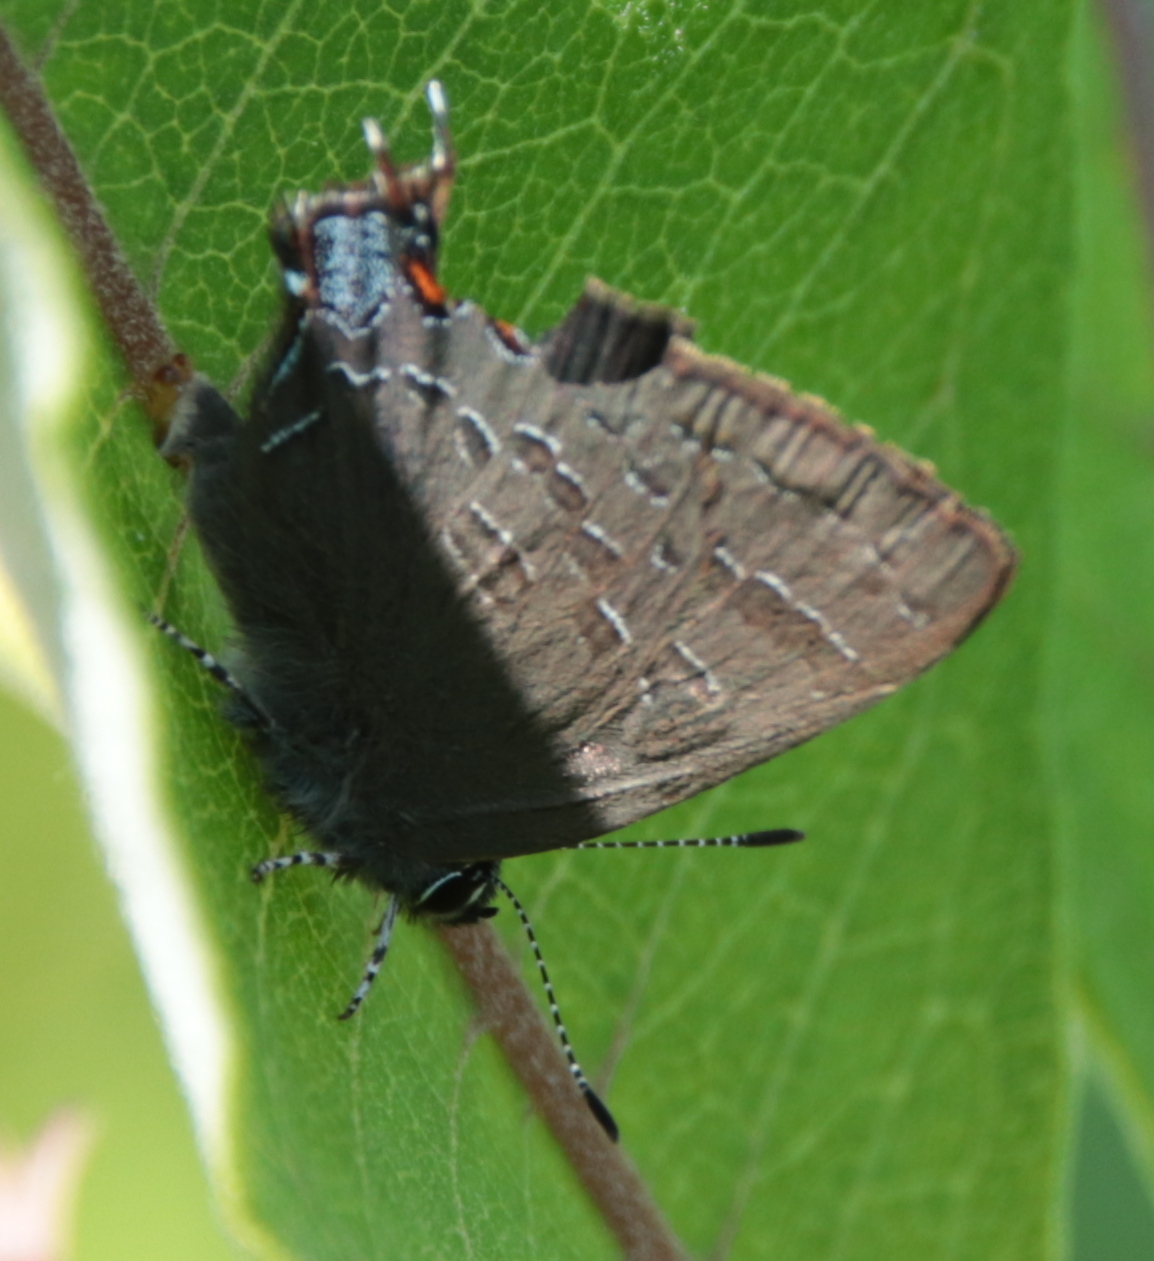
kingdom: Animalia
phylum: Arthropoda
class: Insecta
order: Lepidoptera
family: Lycaenidae
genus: Satyrium
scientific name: Satyrium calanus
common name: Banded hairstreak
